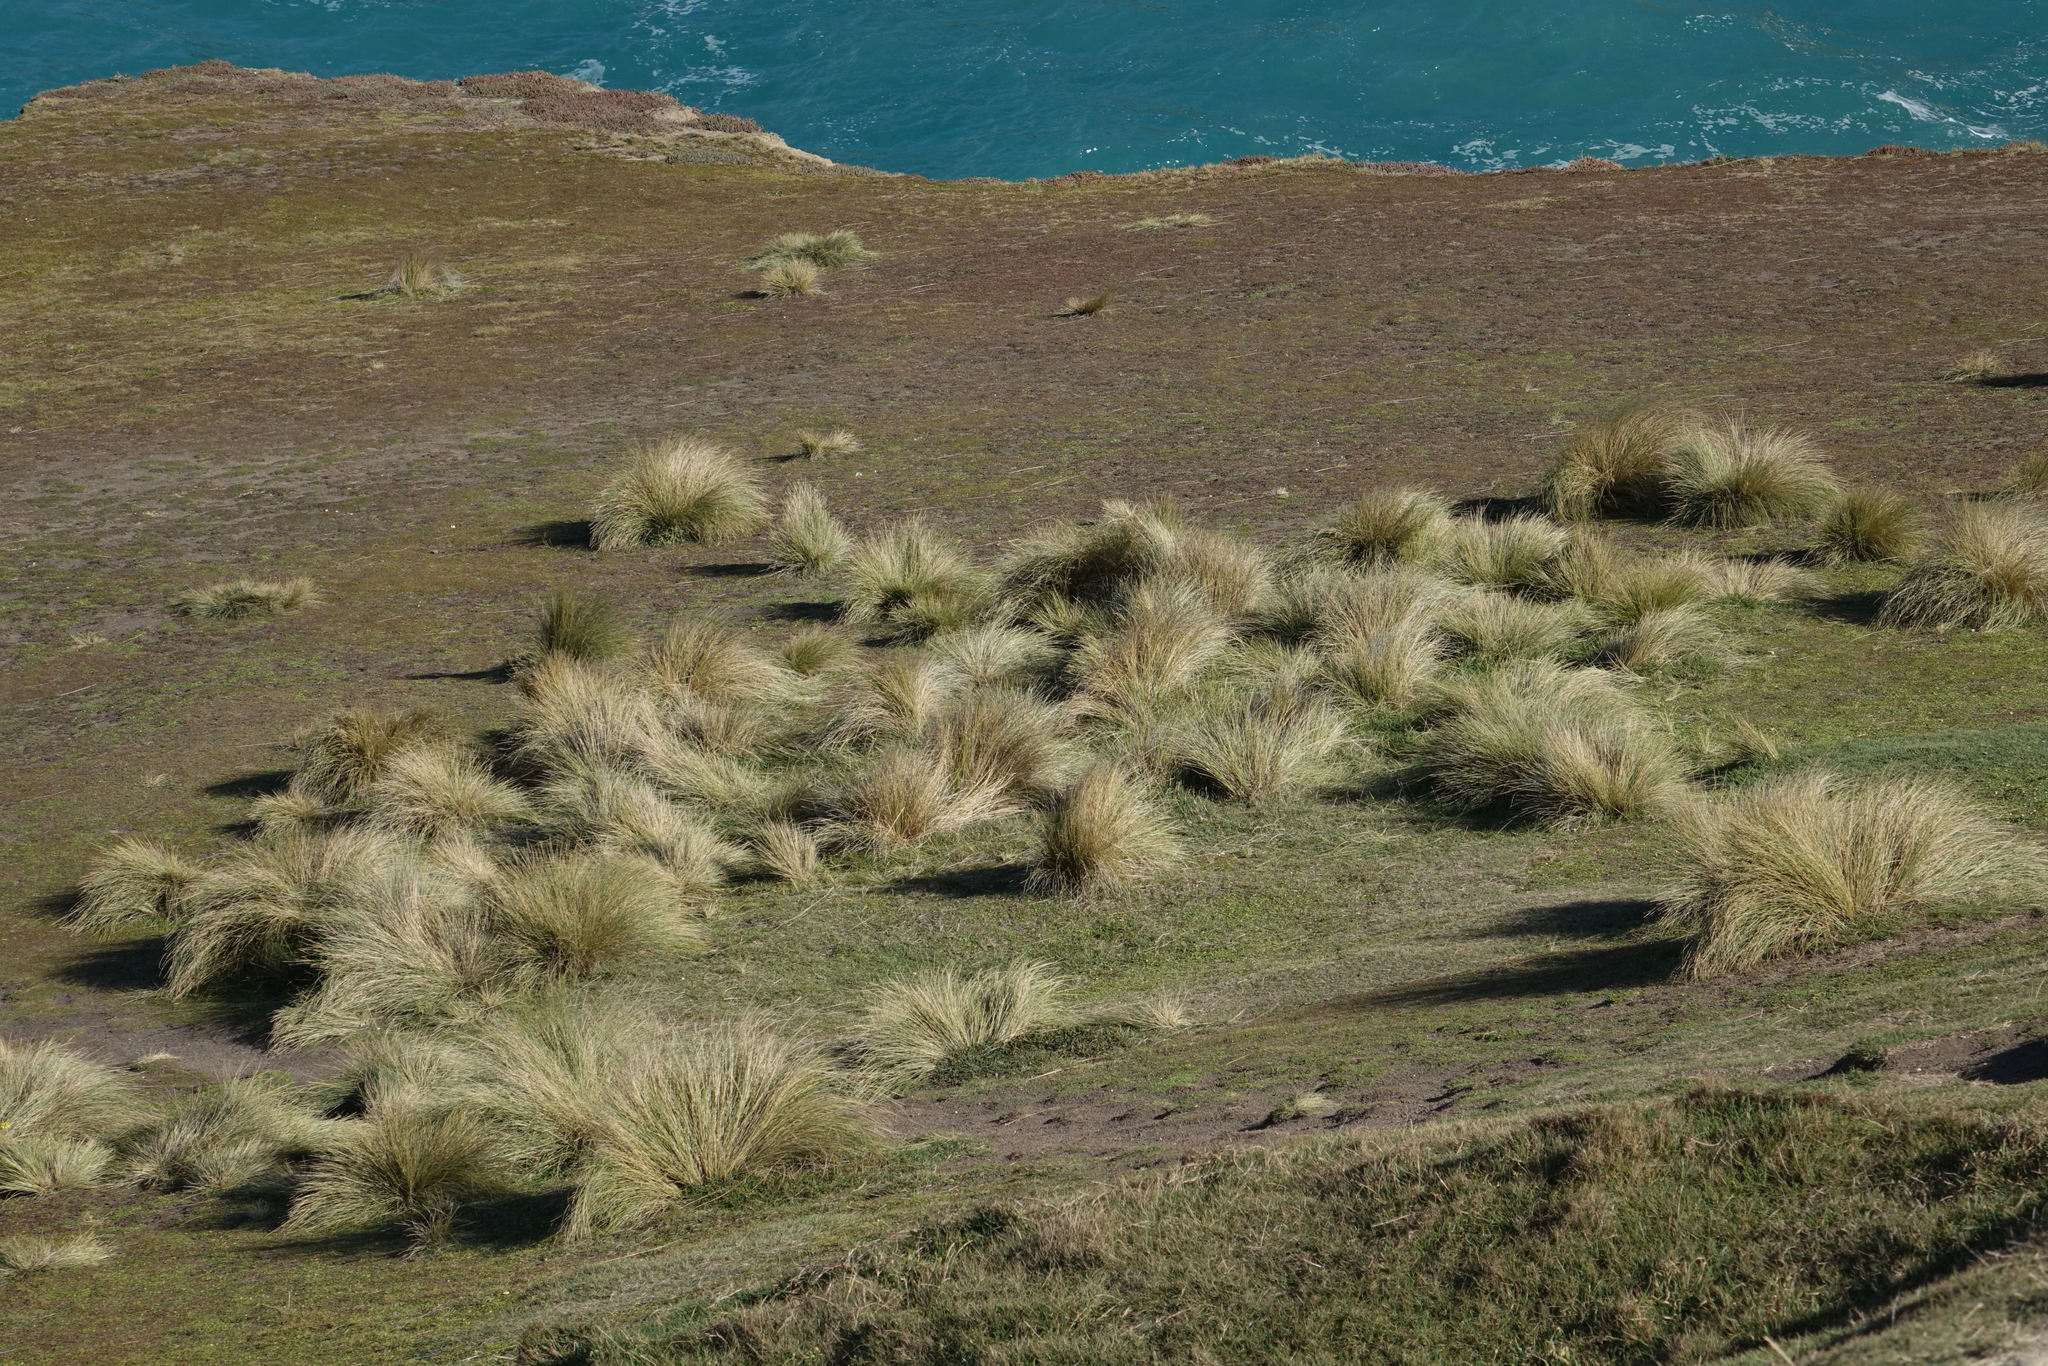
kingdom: Plantae
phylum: Tracheophyta
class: Liliopsida
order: Poales
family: Poaceae
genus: Poa
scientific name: Poa cita
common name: Silver tussock
